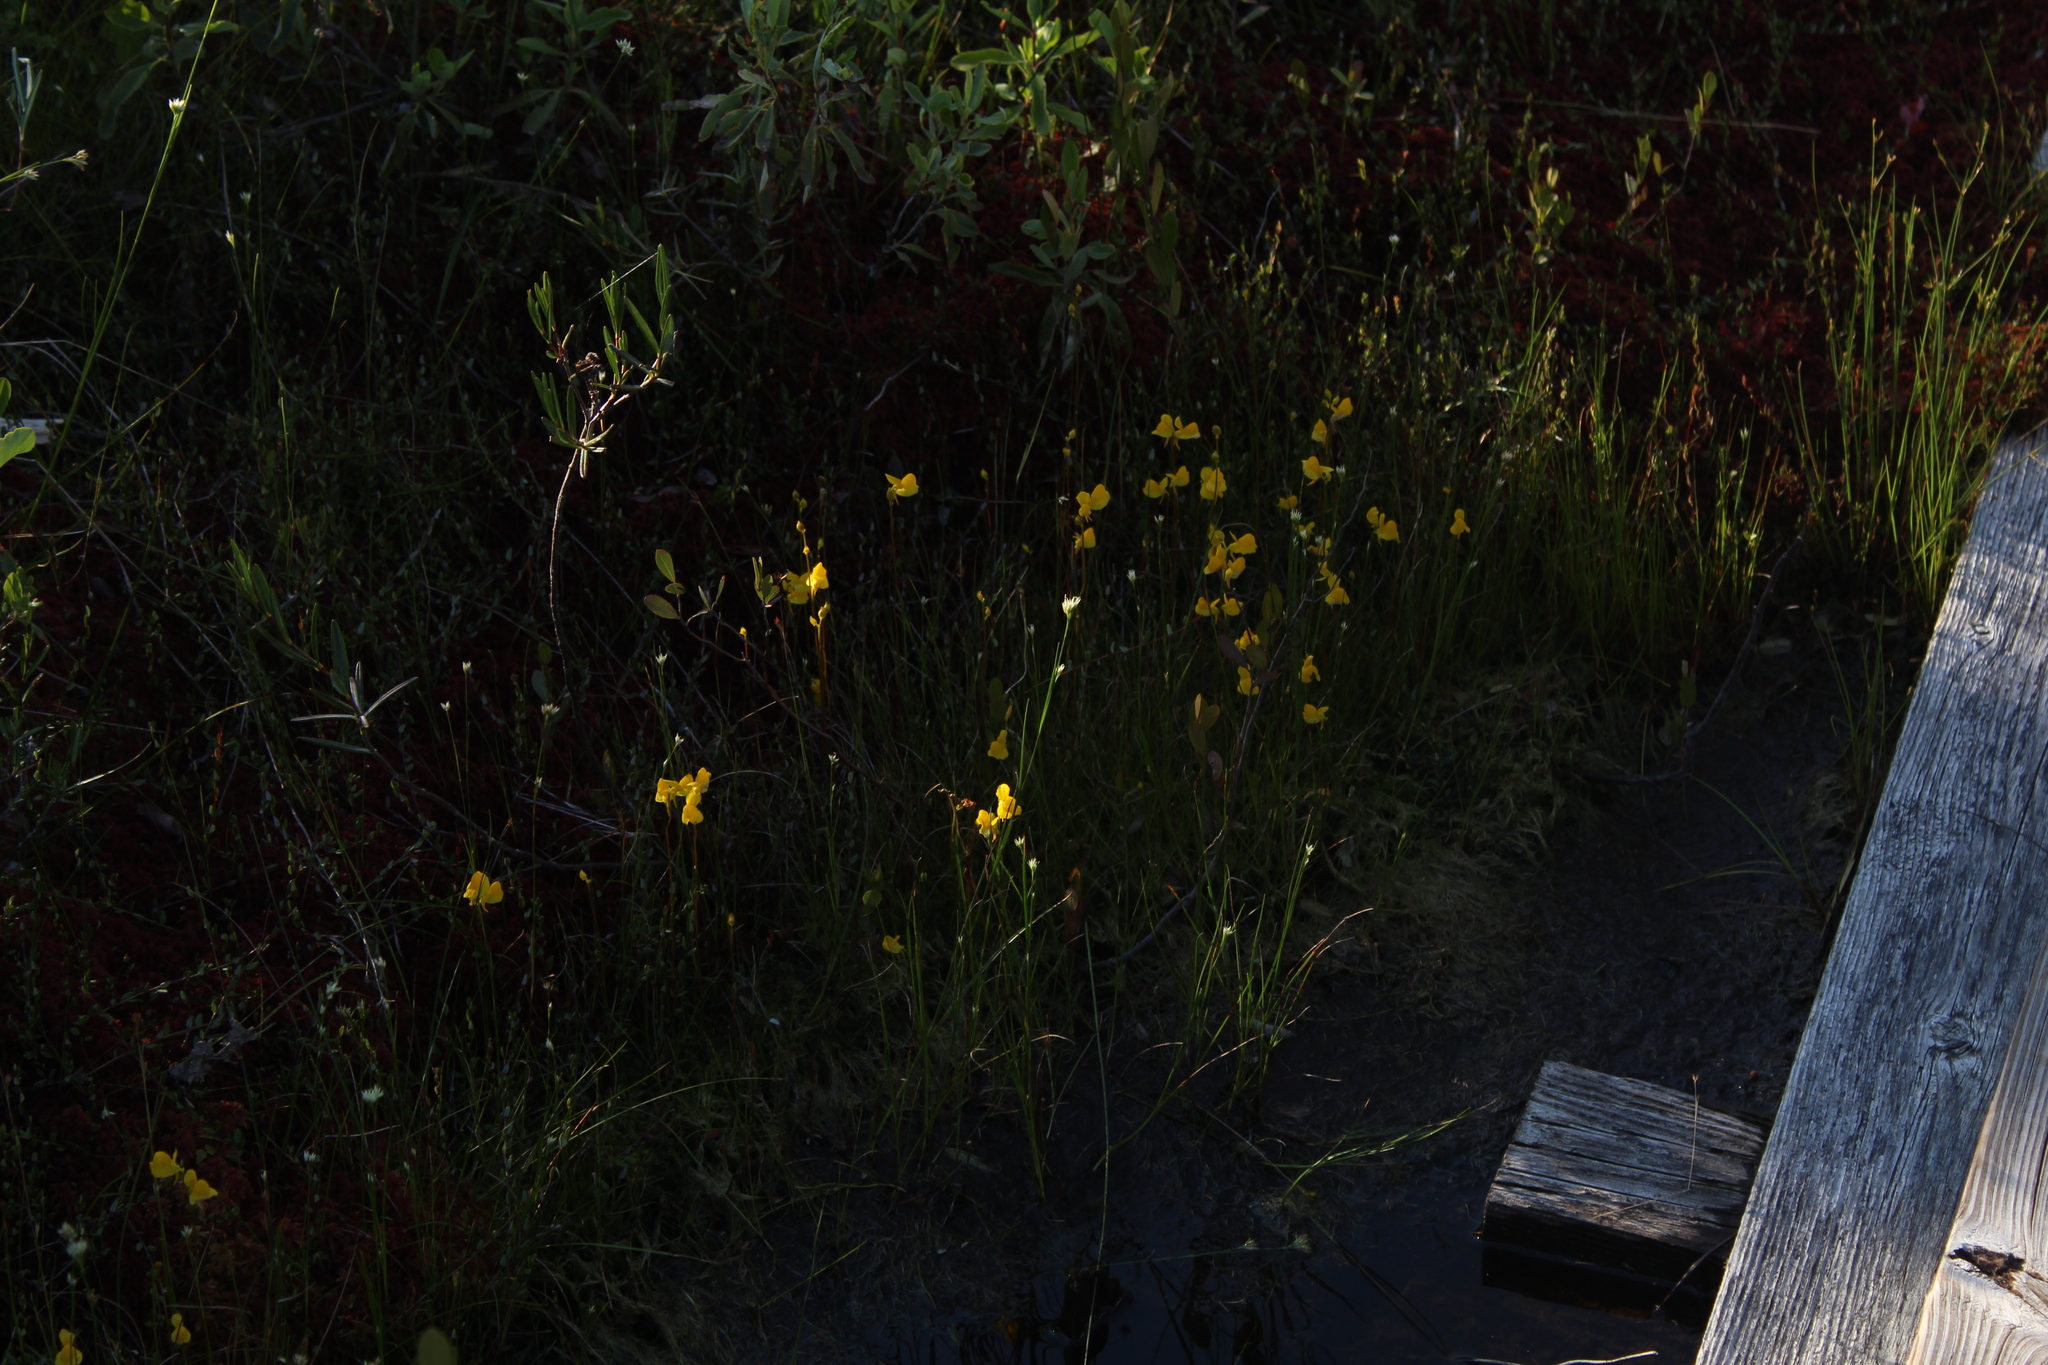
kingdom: Plantae
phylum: Tracheophyta
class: Magnoliopsida
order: Lamiales
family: Lentibulariaceae
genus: Utricularia
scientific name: Utricularia cornuta
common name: Horned bladderwort
